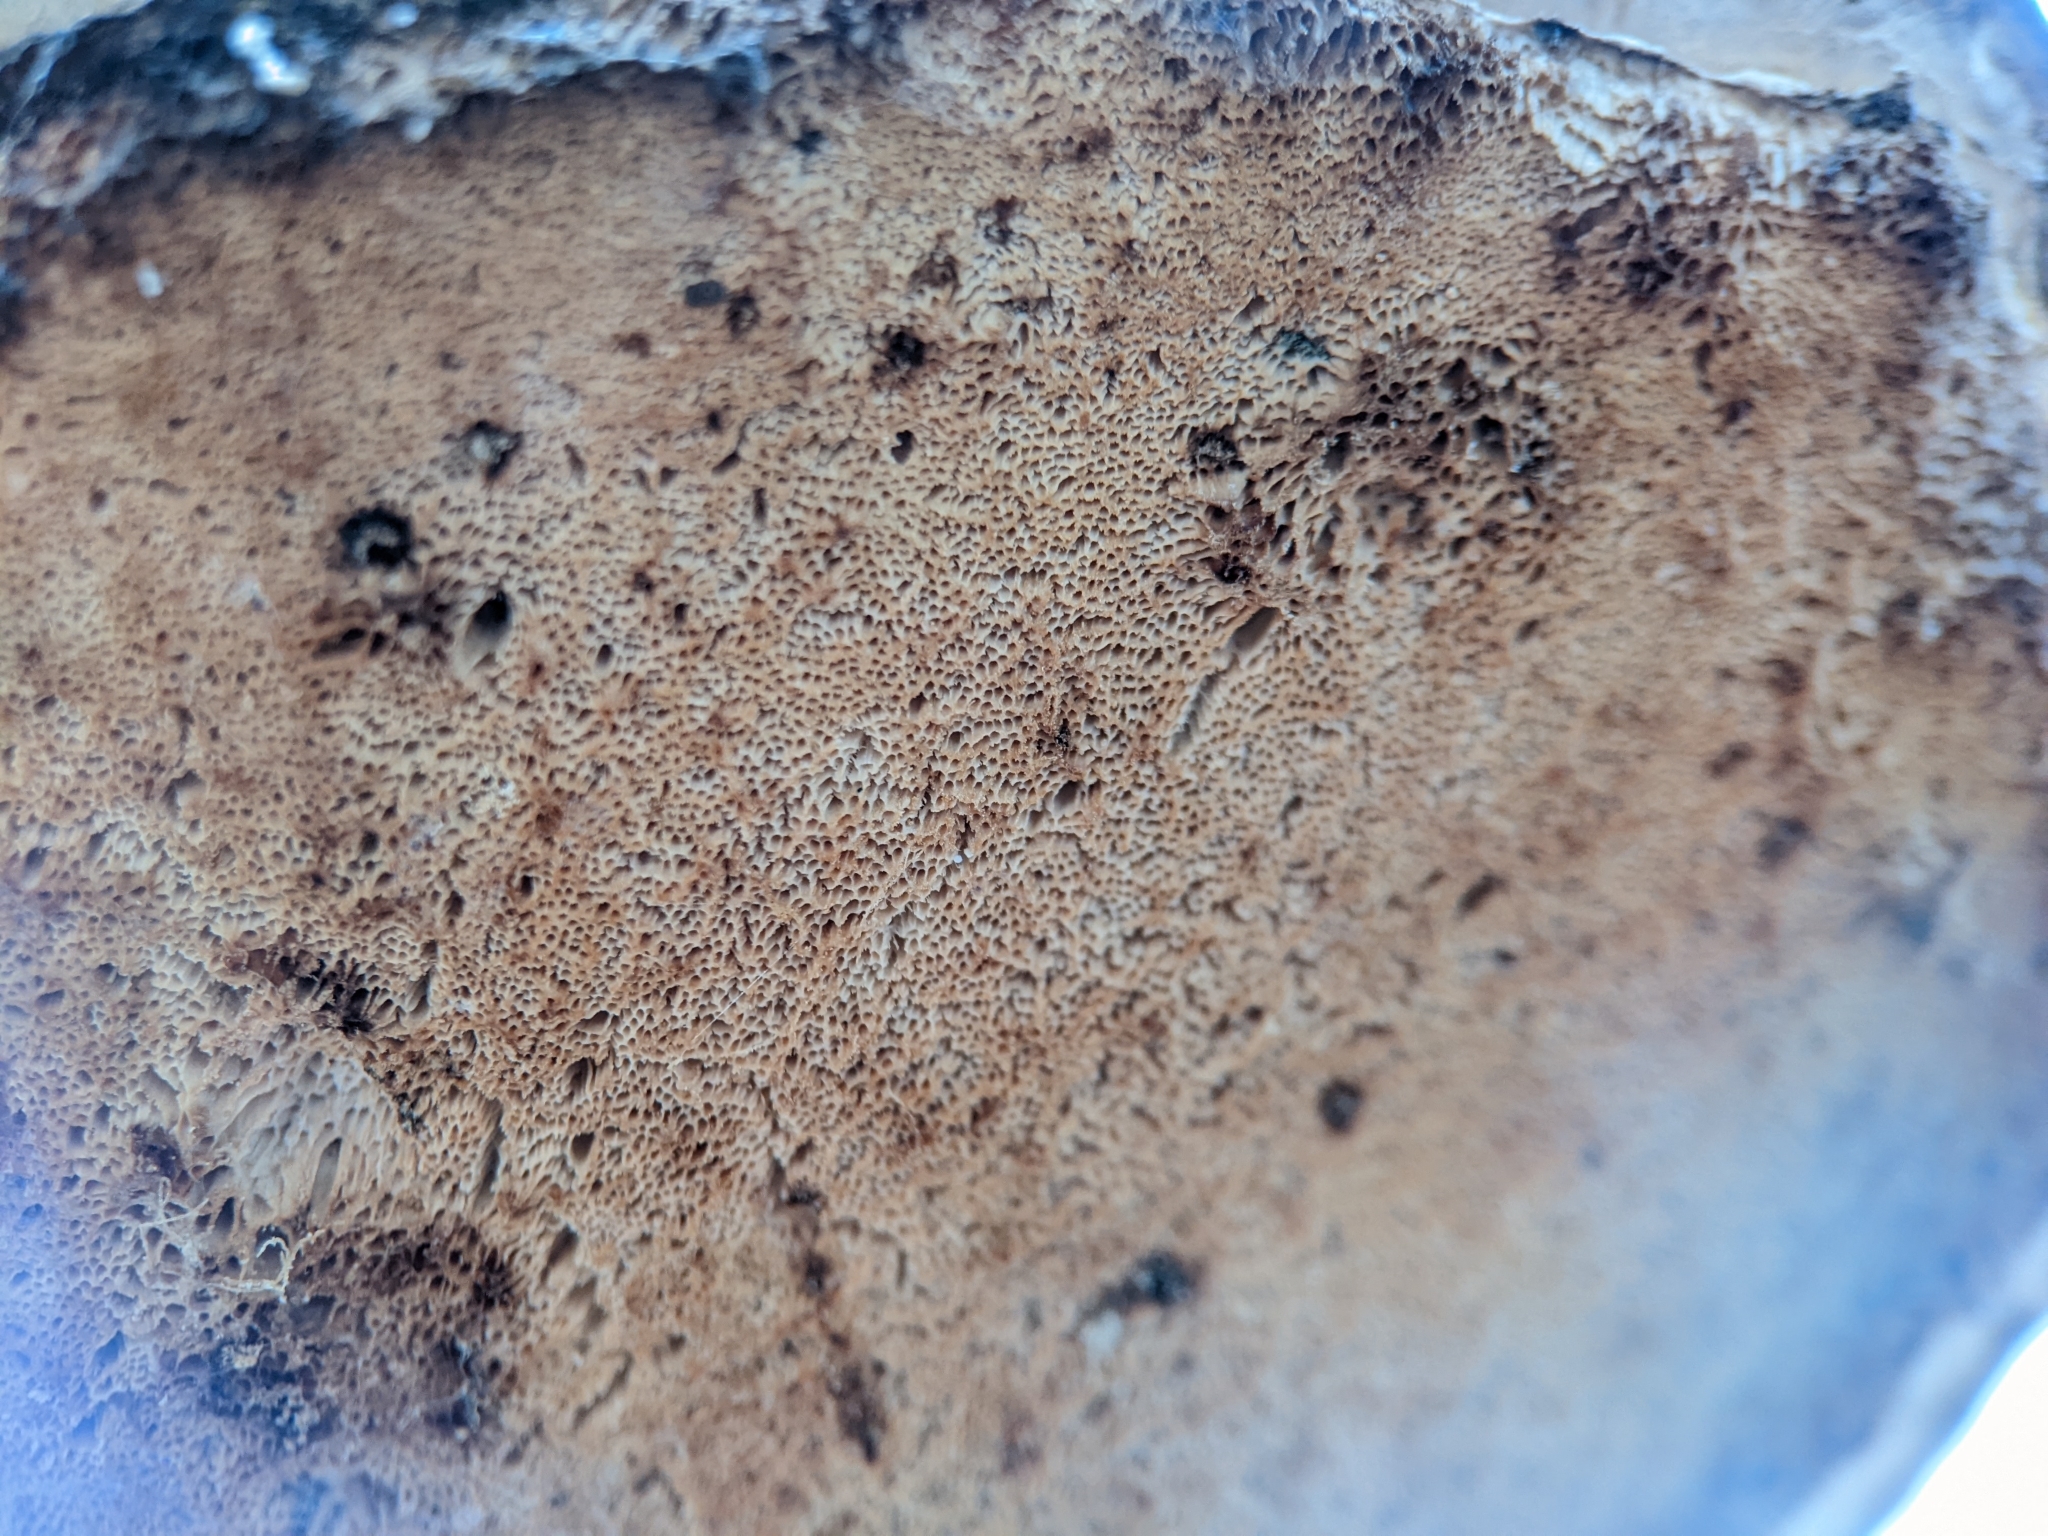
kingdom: Fungi
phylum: Basidiomycota
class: Agaricomycetes
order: Polyporales
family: Fomitopsidaceae
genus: Fomitopsis
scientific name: Fomitopsis betulina
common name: Birch polypore
